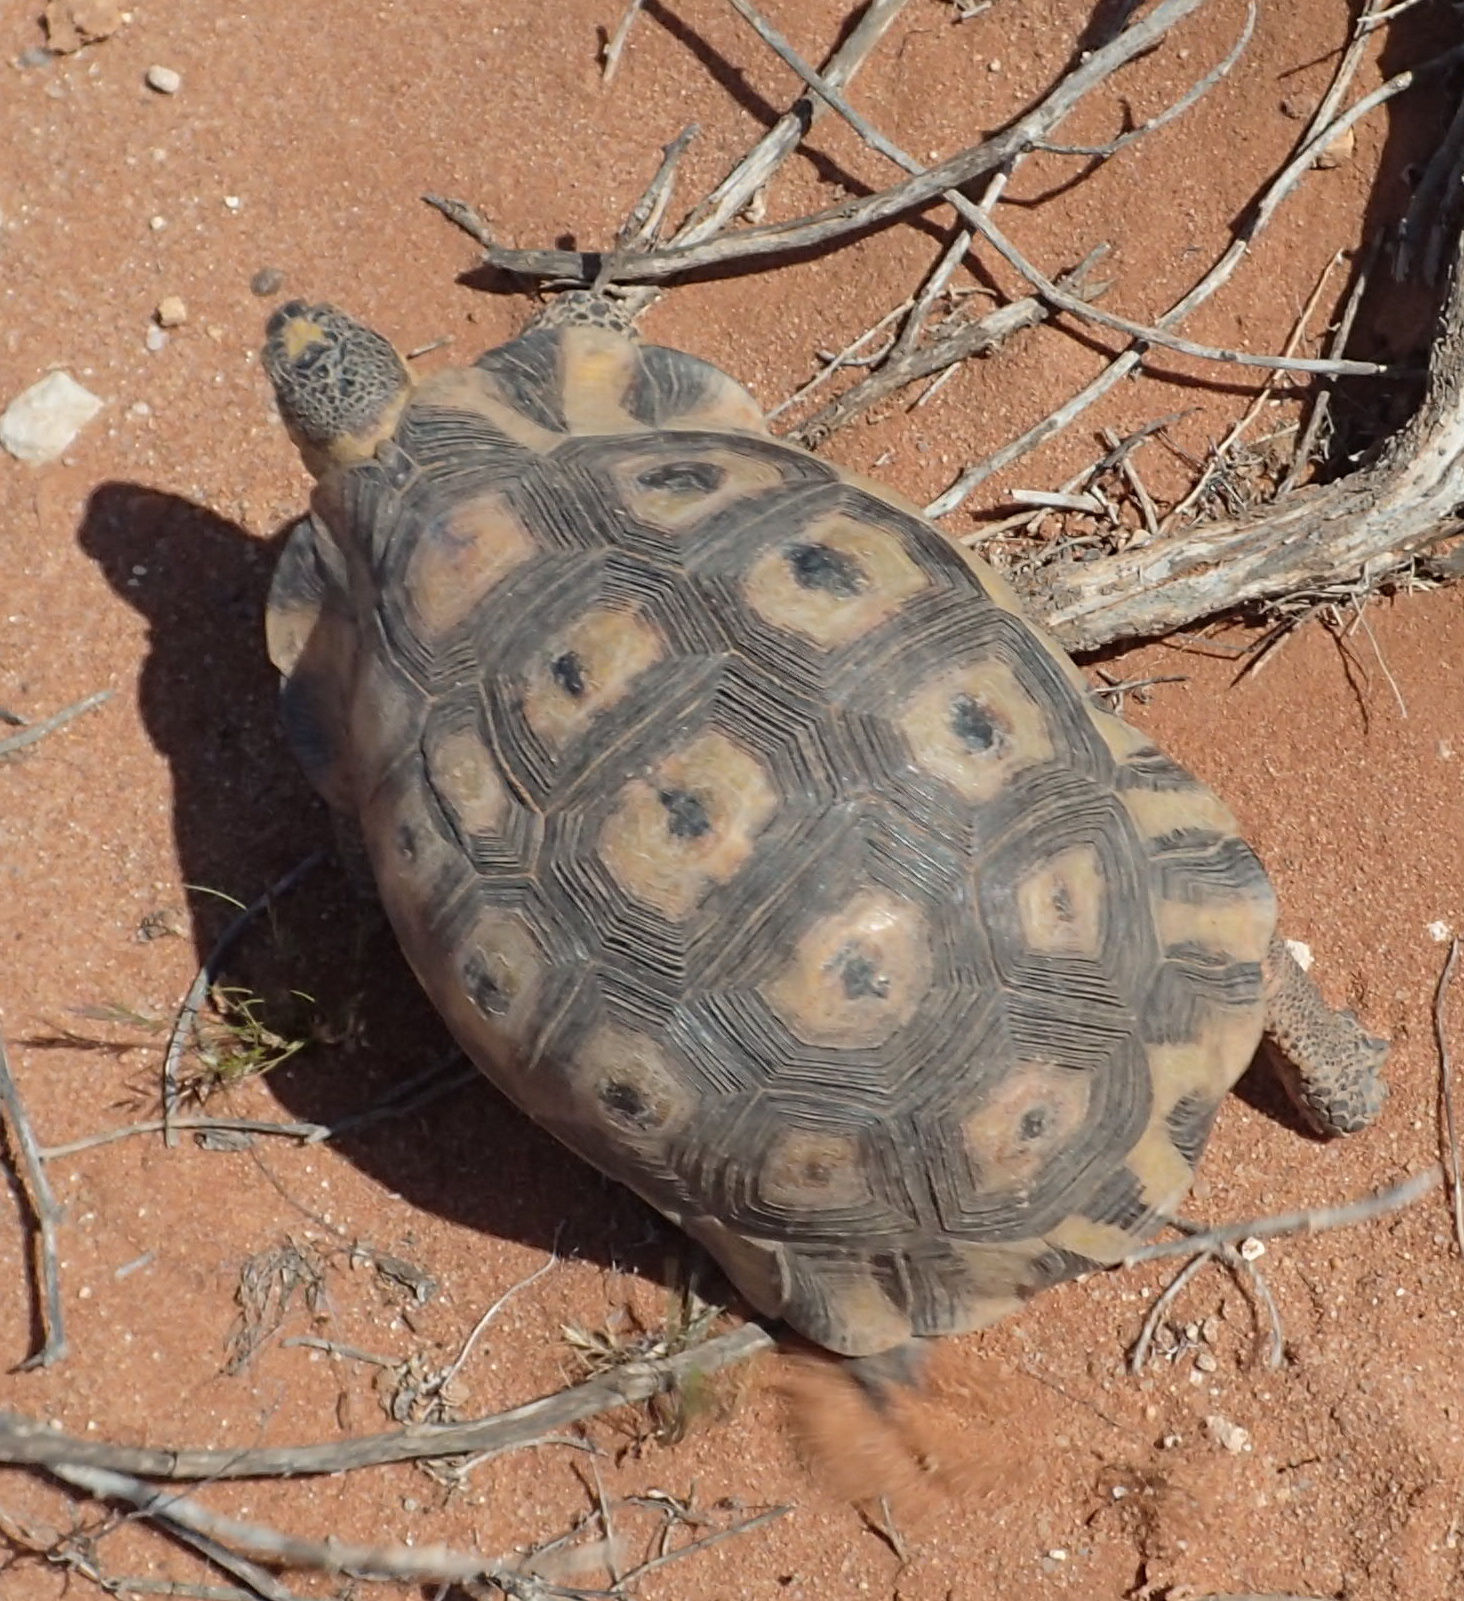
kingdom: Animalia
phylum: Chordata
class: Testudines
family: Testudinidae
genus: Chersina
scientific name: Chersina angulata
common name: South african bowsprit tortoise
